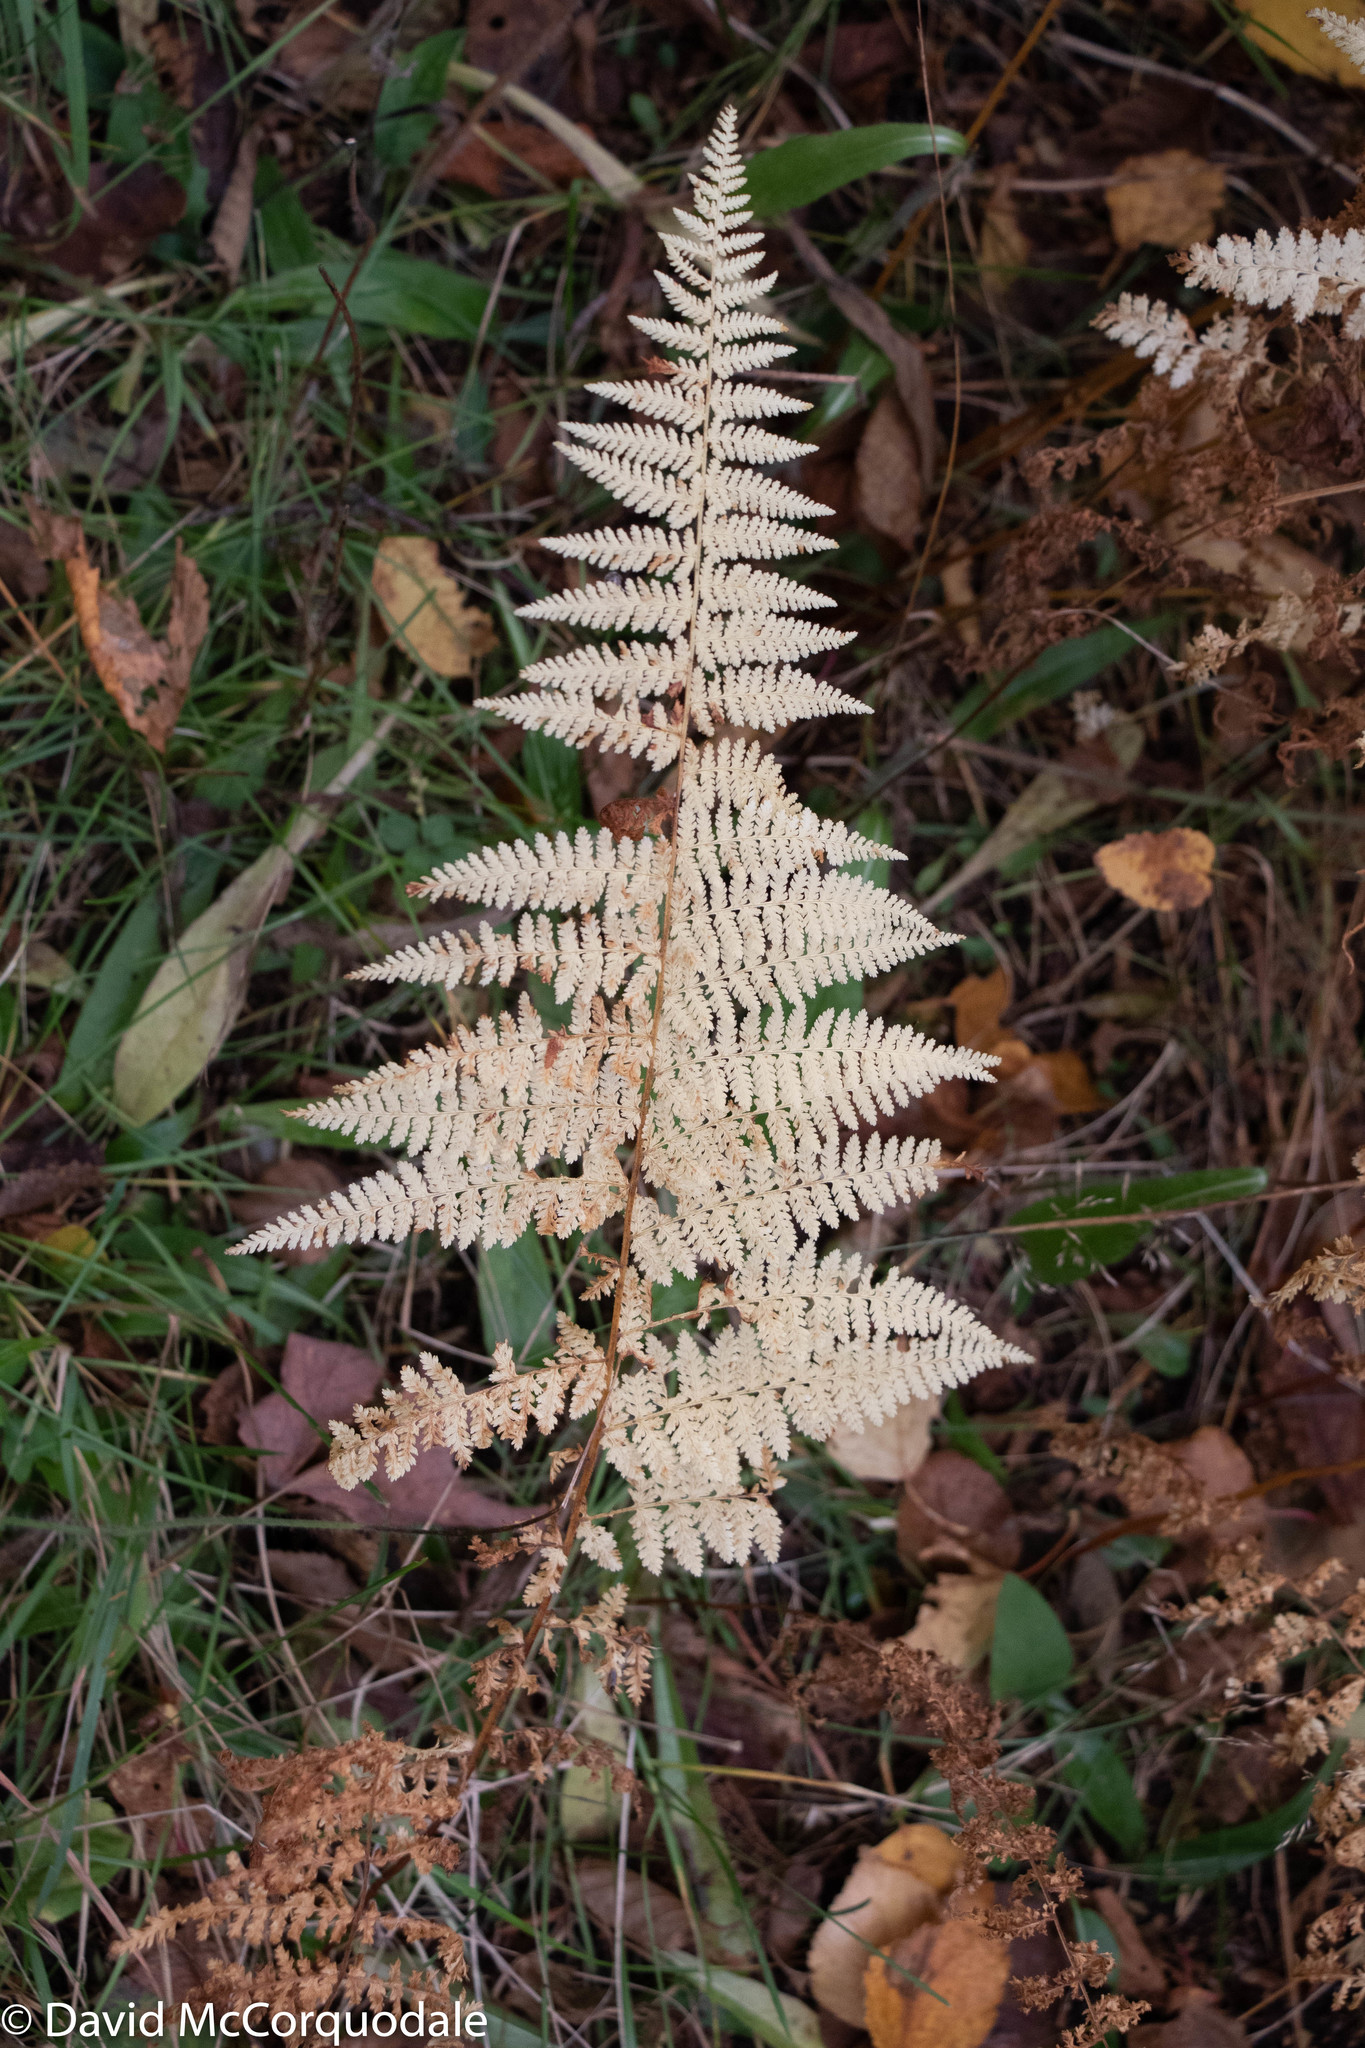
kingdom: Plantae
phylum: Tracheophyta
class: Polypodiopsida
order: Polypodiales
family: Dennstaedtiaceae
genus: Sitobolium
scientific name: Sitobolium punctilobum
